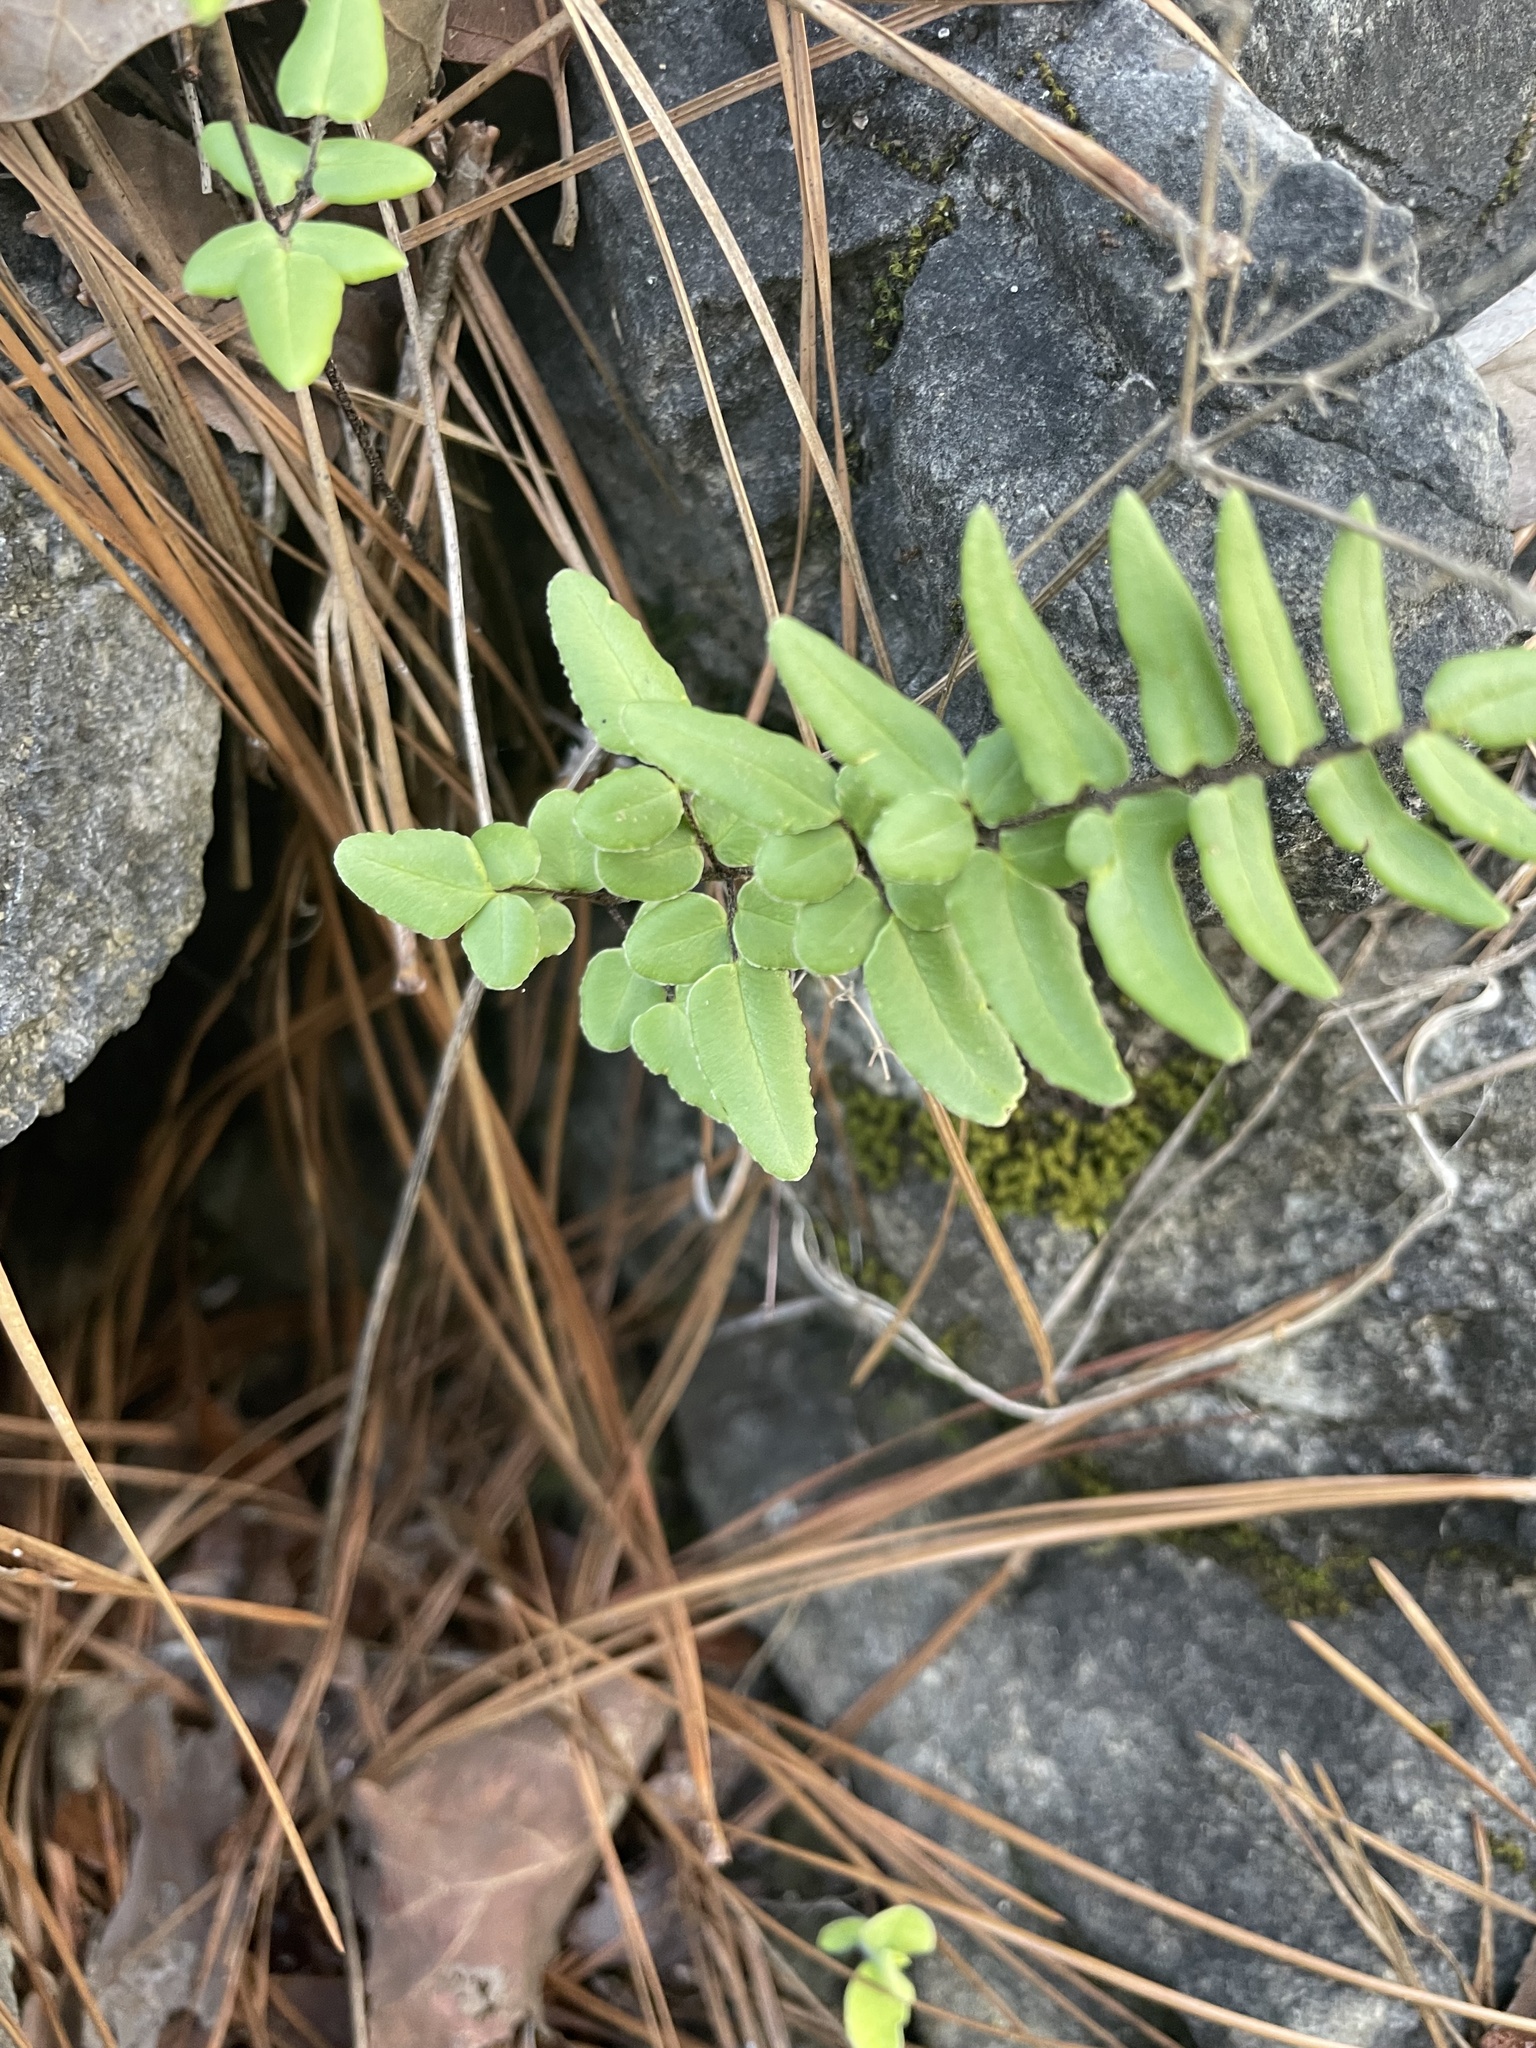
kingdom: Plantae
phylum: Tracheophyta
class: Polypodiopsida
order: Polypodiales
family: Pteridaceae
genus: Pellaea
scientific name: Pellaea atropurpurea
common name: Hairy cliffbrake
